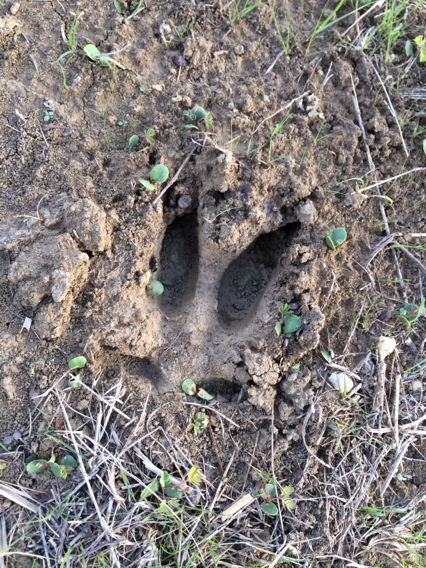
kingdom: Animalia
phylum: Chordata
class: Mammalia
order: Artiodactyla
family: Suidae
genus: Sus
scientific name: Sus scrofa
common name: Wild boar
